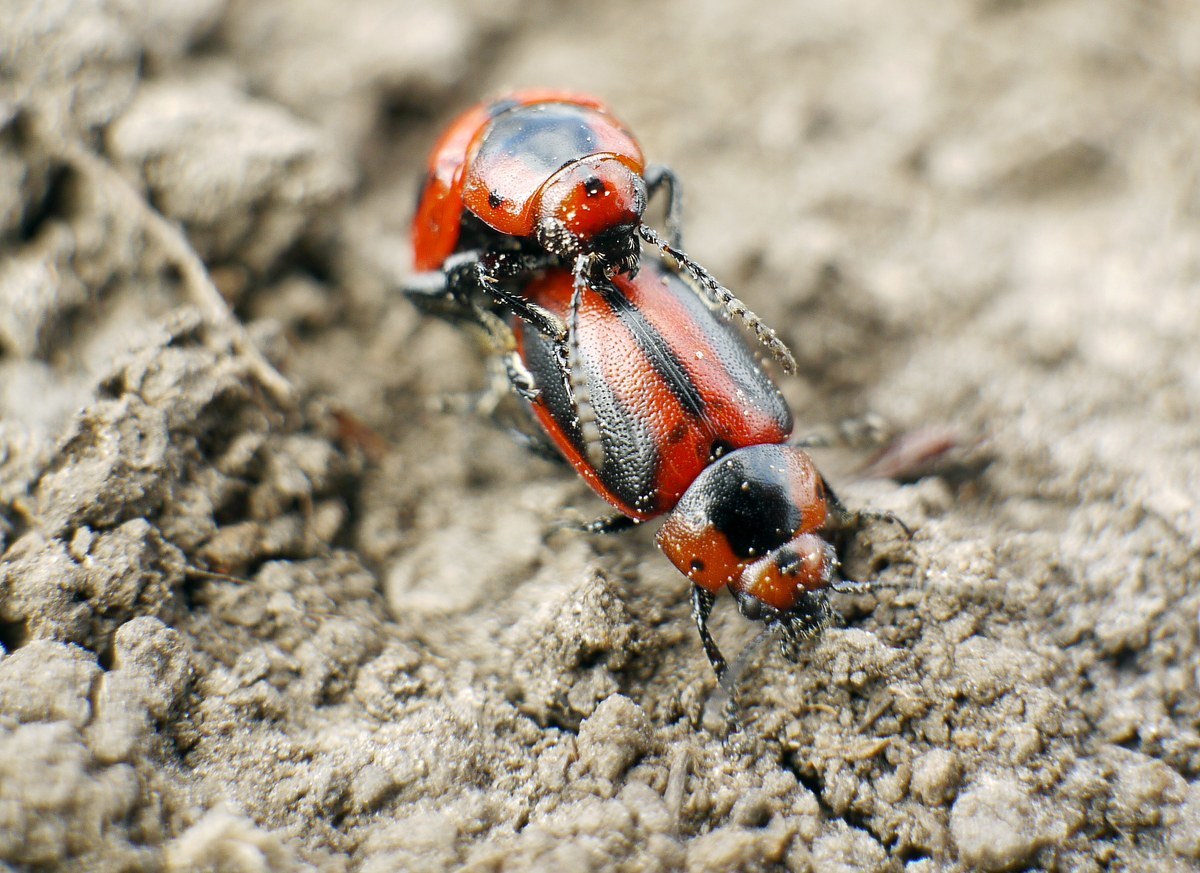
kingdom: Animalia
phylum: Arthropoda
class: Insecta
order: Coleoptera
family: Chrysomelidae
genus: Entomoscelis
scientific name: Entomoscelis adonidis
